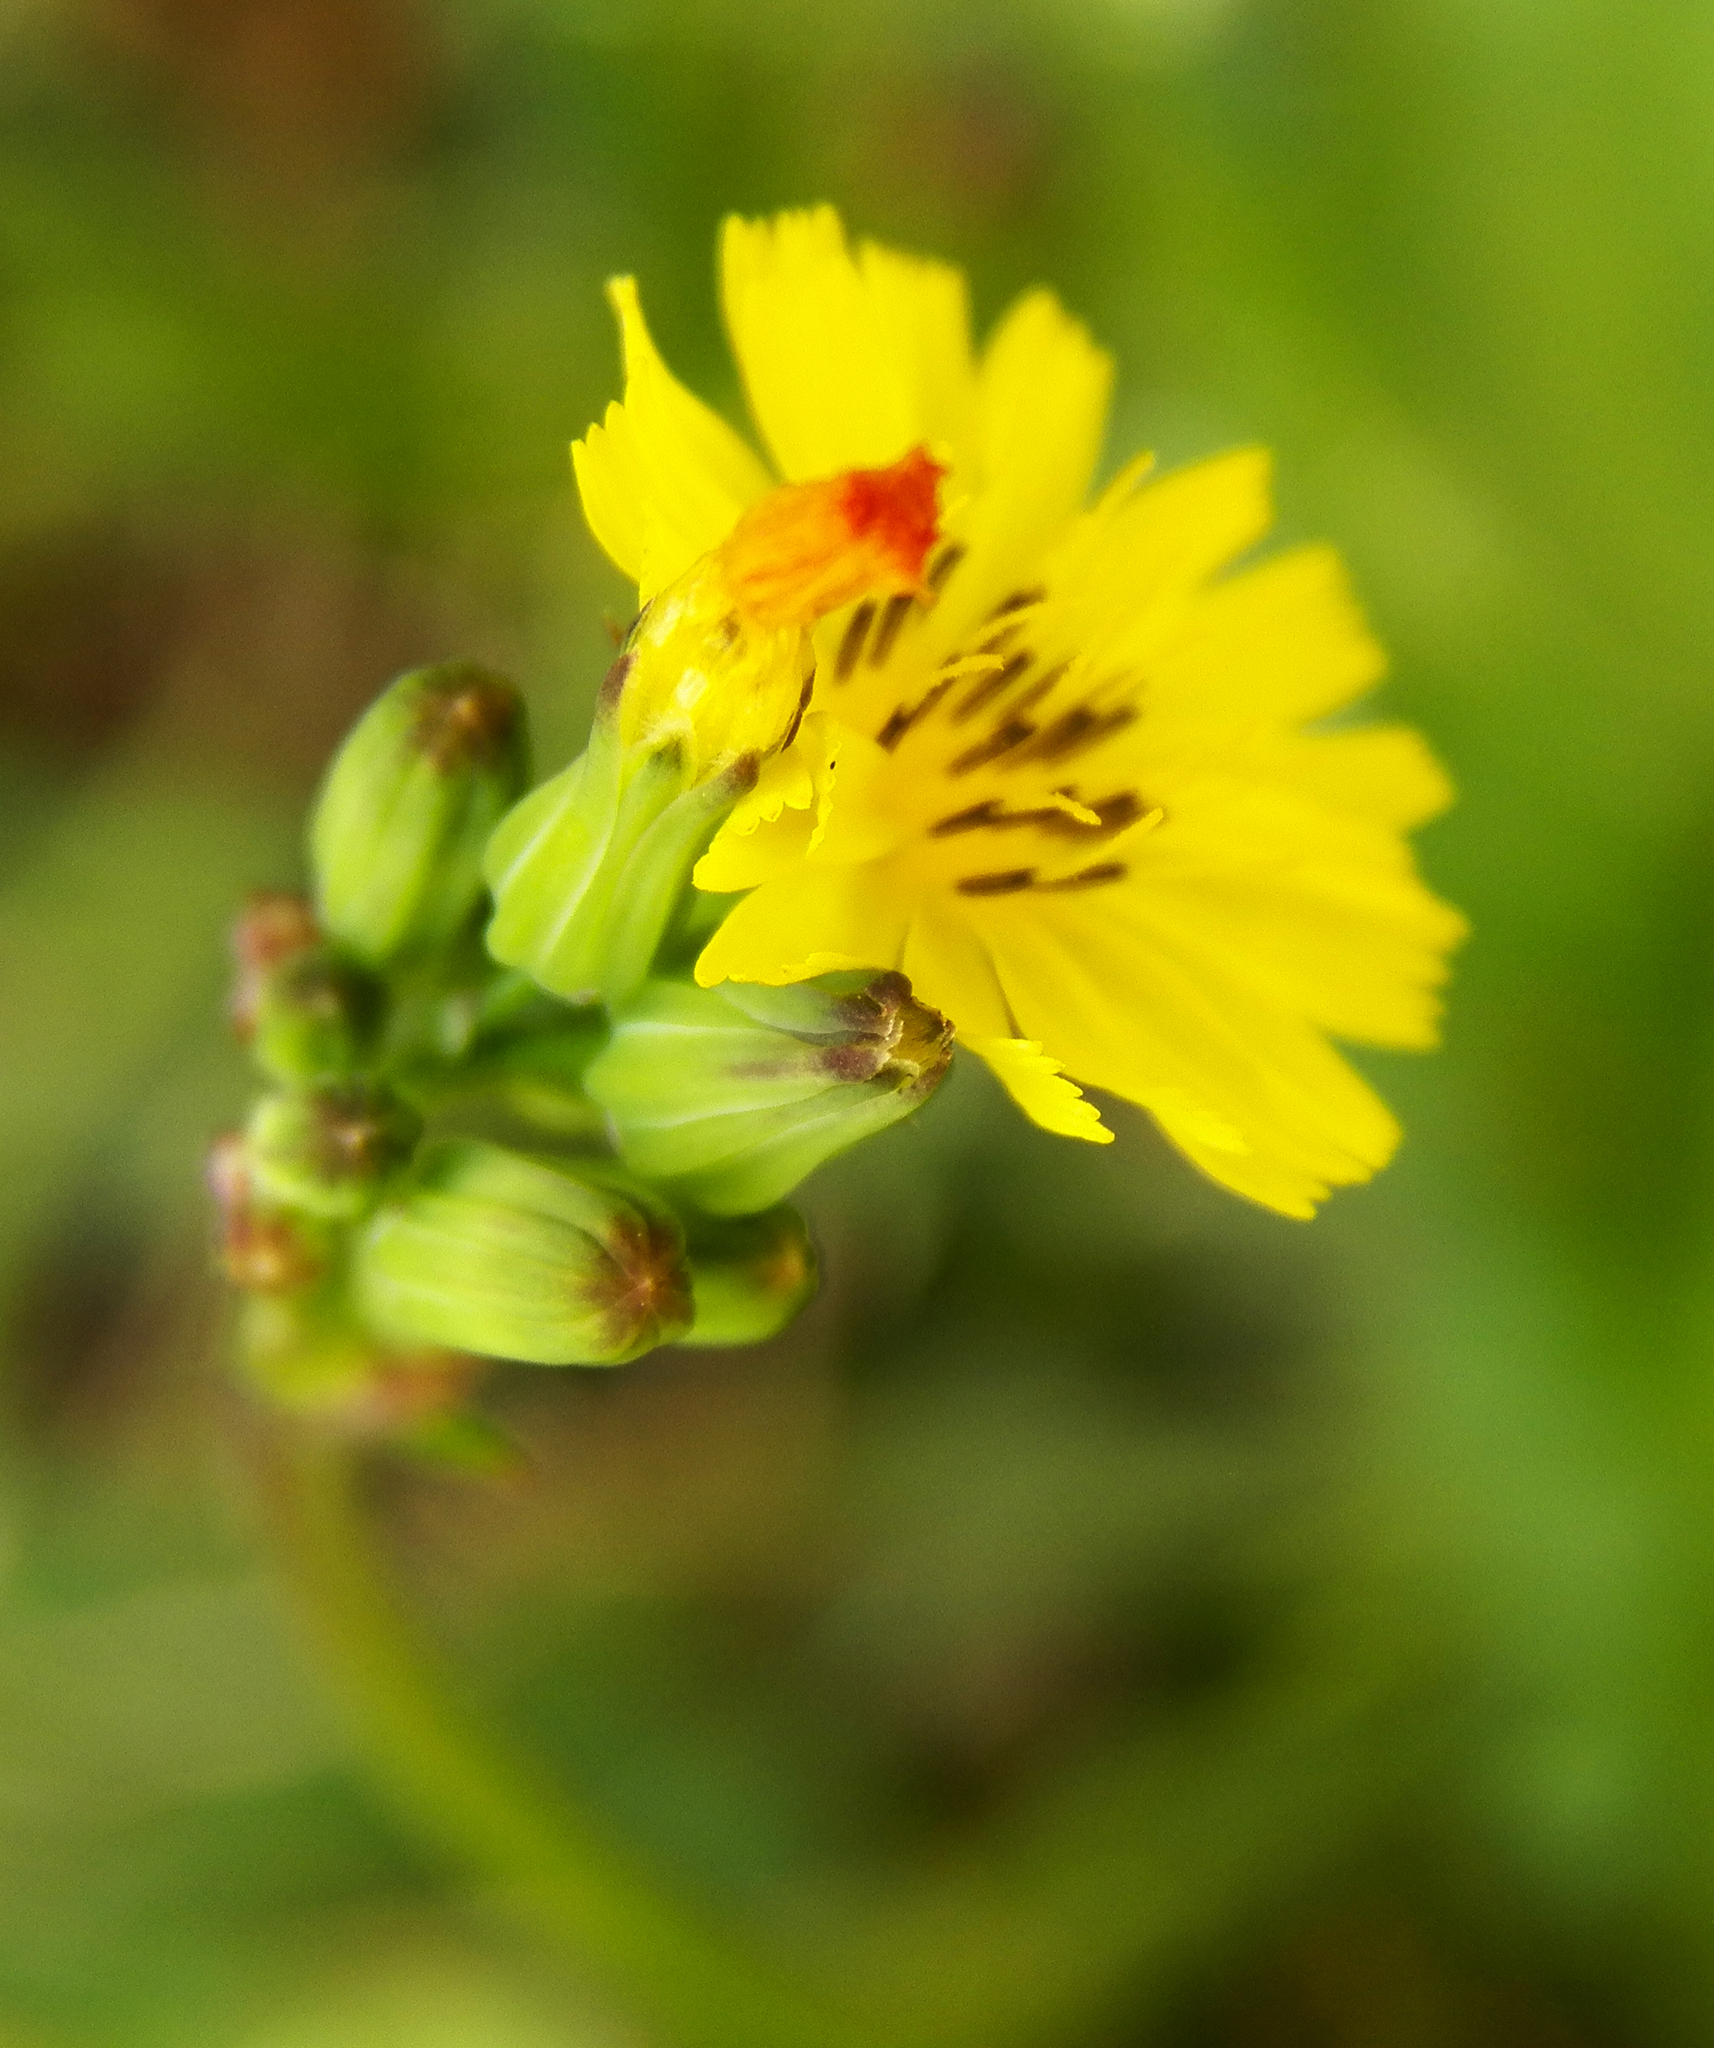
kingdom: Plantae
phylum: Tracheophyta
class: Magnoliopsida
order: Asterales
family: Asteraceae
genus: Youngia
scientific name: Youngia japonica
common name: Oriental false hawksbeard
